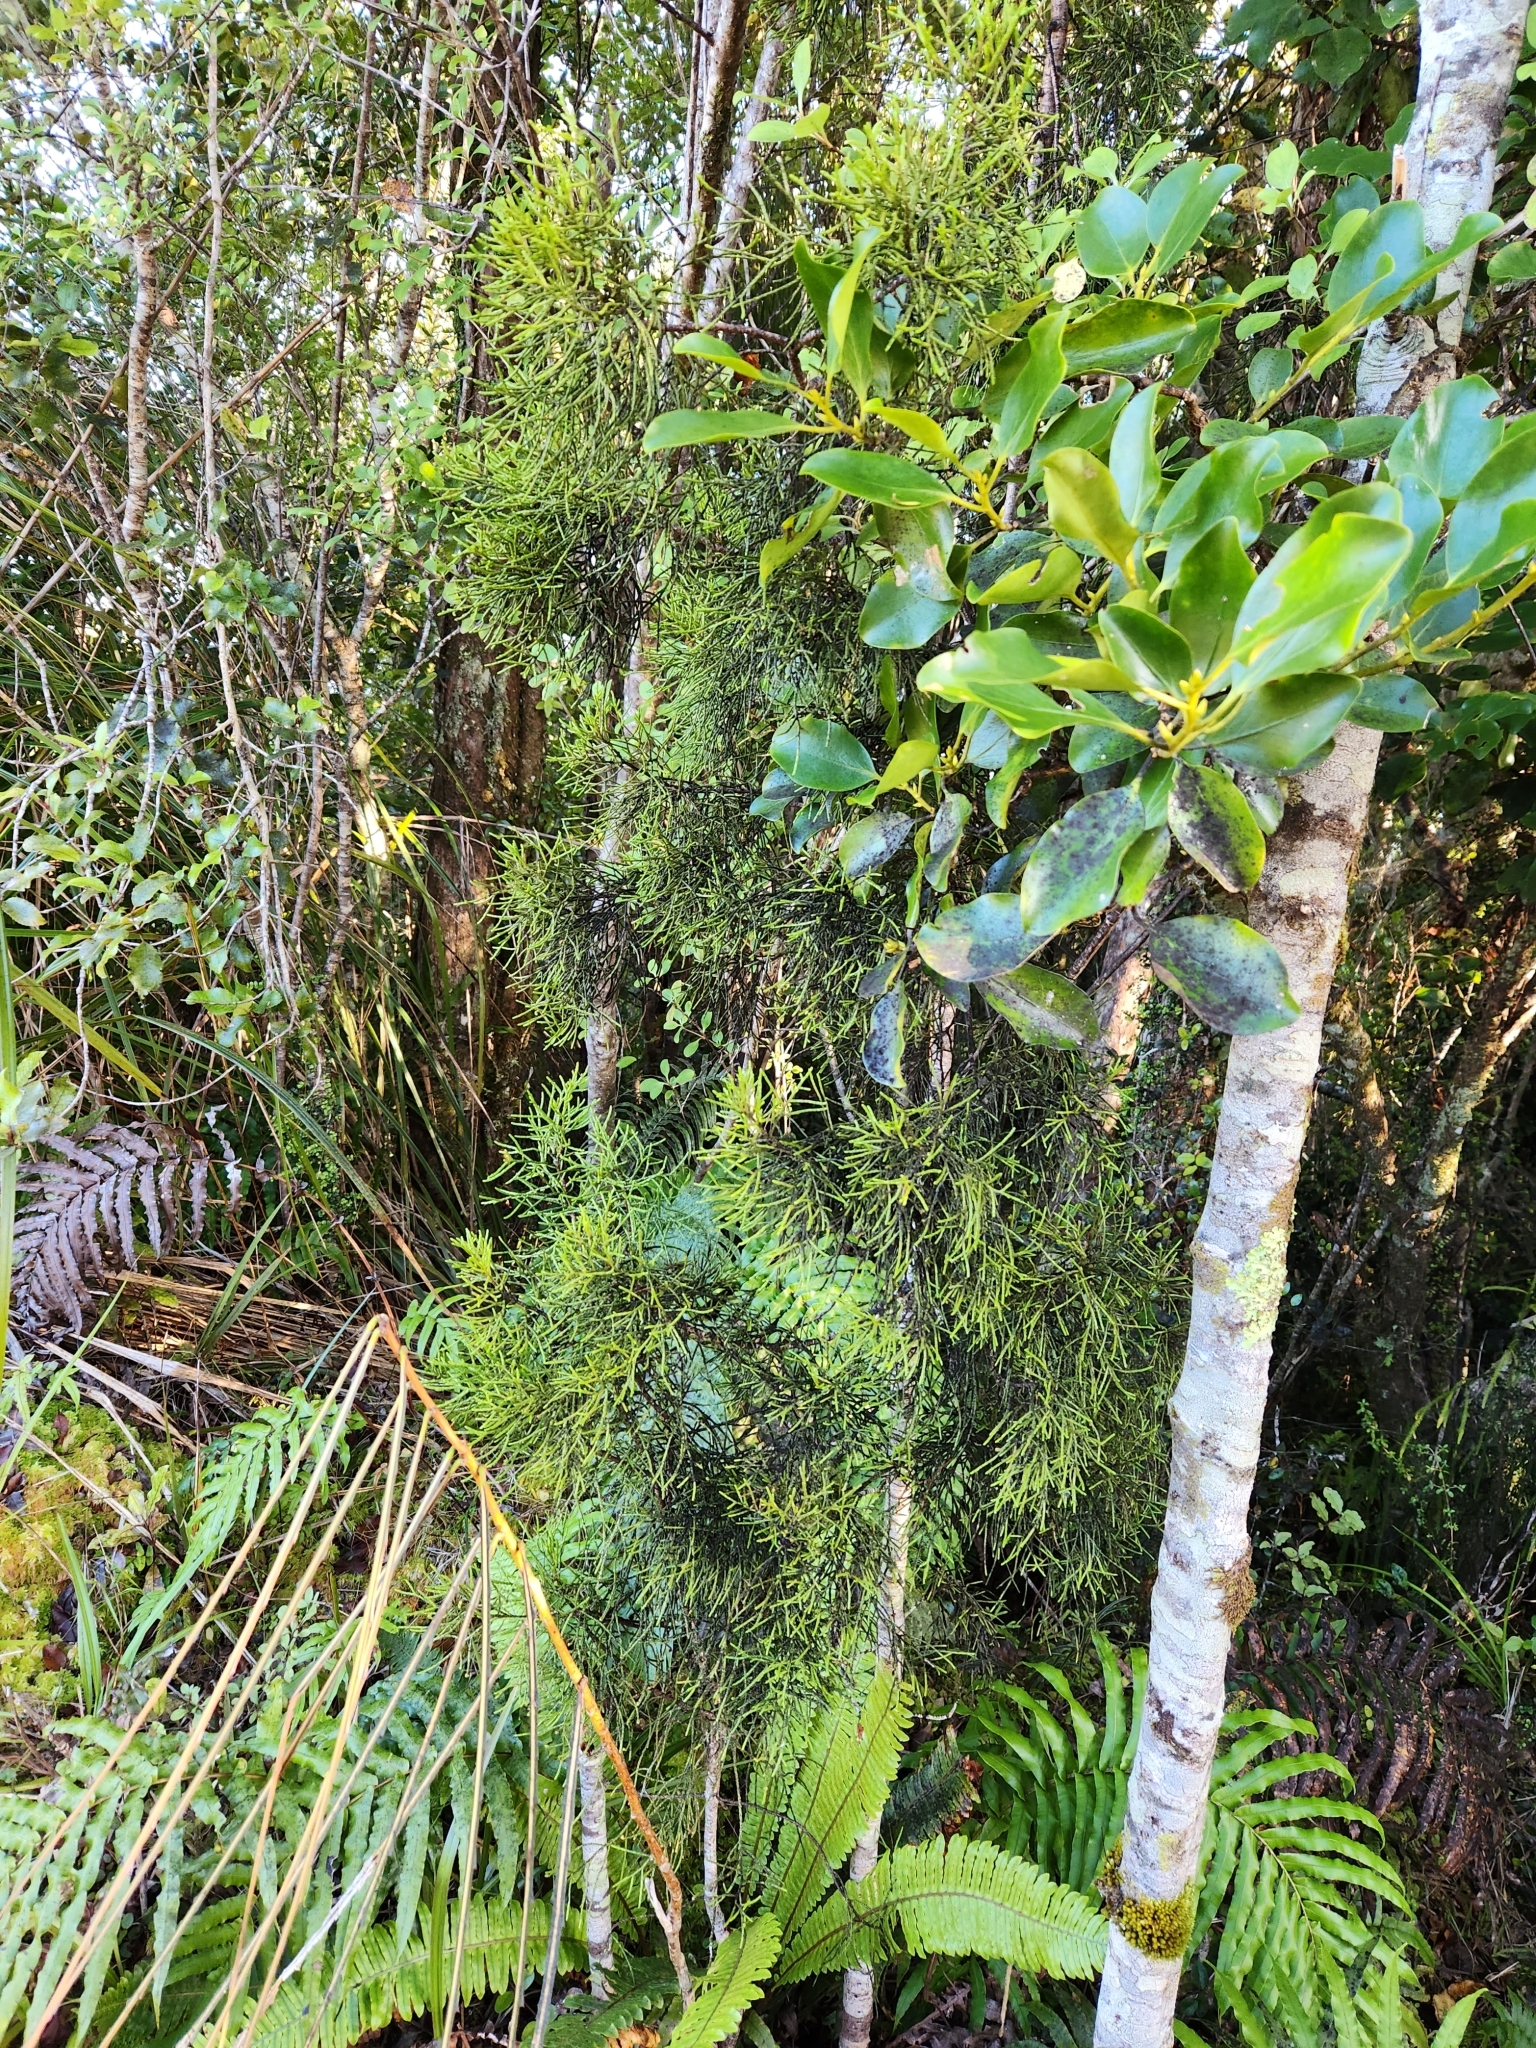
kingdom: Plantae
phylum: Tracheophyta
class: Pinopsida
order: Pinales
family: Podocarpaceae
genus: Manoao
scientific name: Manoao colensoi
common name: Silver pine
